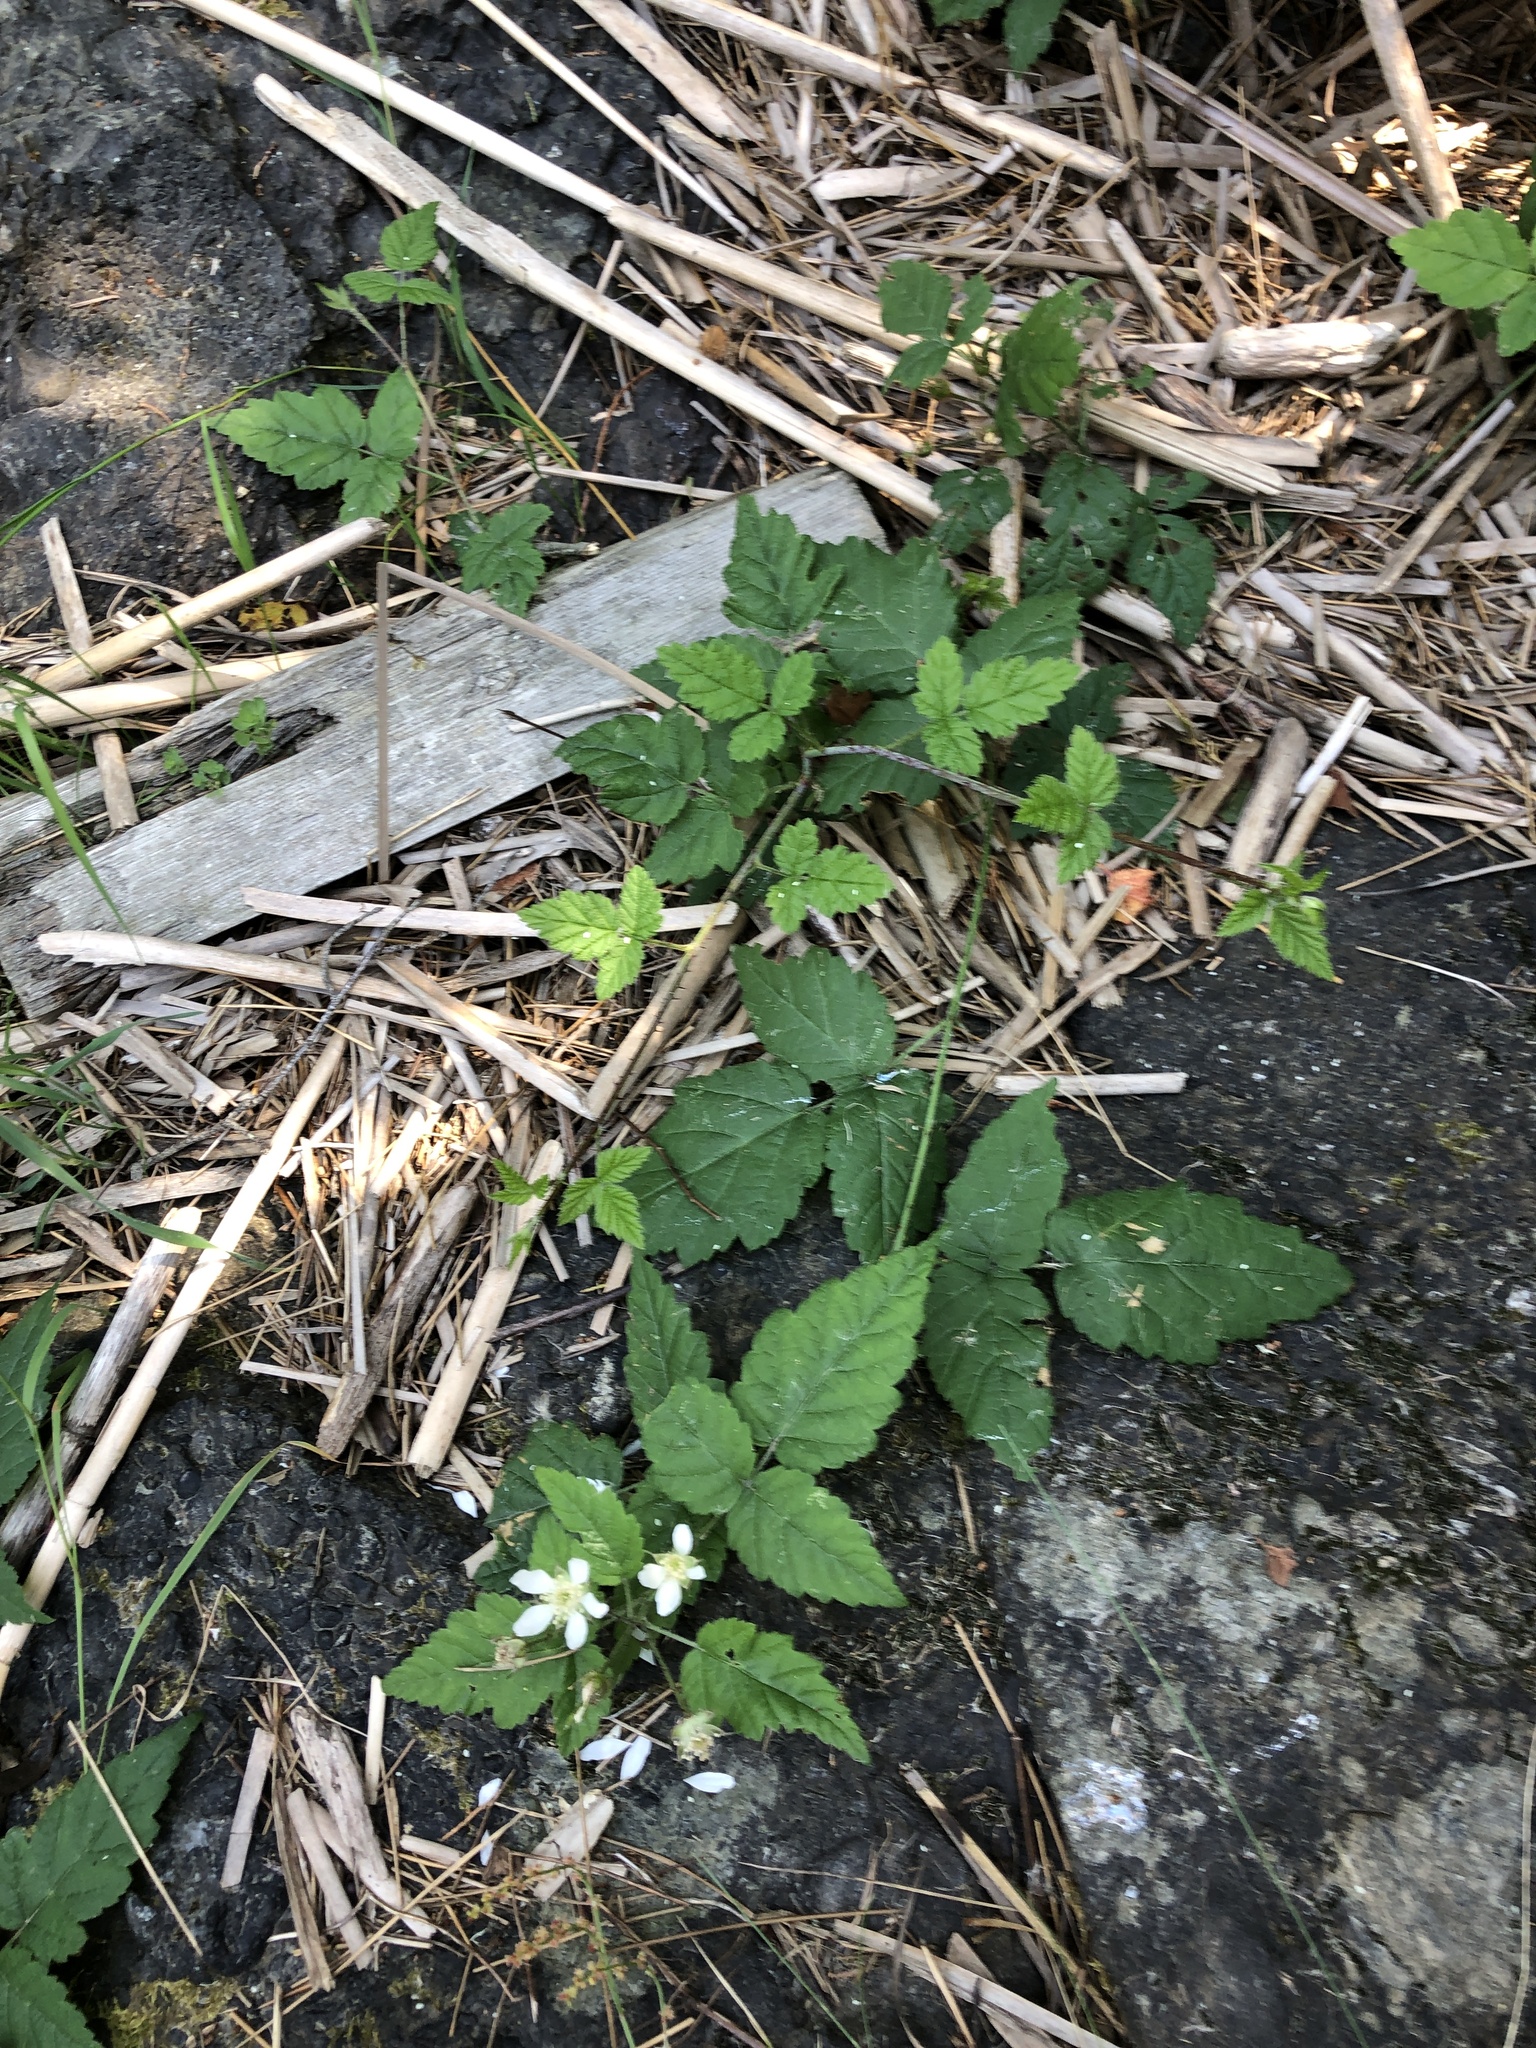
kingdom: Plantae
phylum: Tracheophyta
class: Magnoliopsida
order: Rosales
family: Rosaceae
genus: Rubus
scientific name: Rubus ursinus
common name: Pacific blackberry
